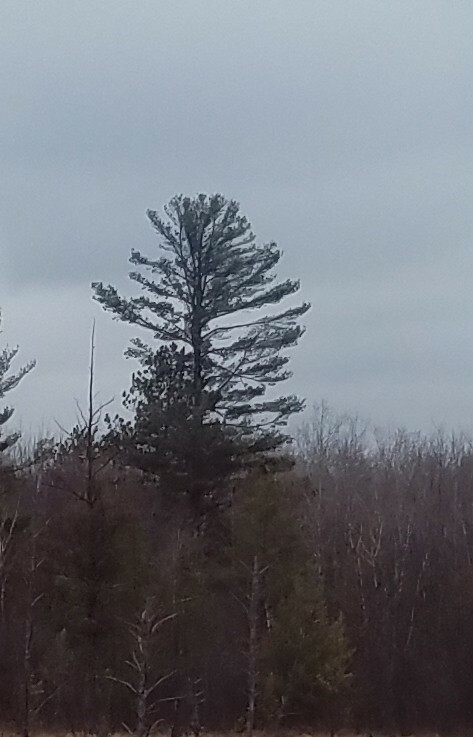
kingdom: Plantae
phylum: Tracheophyta
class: Pinopsida
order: Pinales
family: Pinaceae
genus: Pinus
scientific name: Pinus strobus
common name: Weymouth pine
